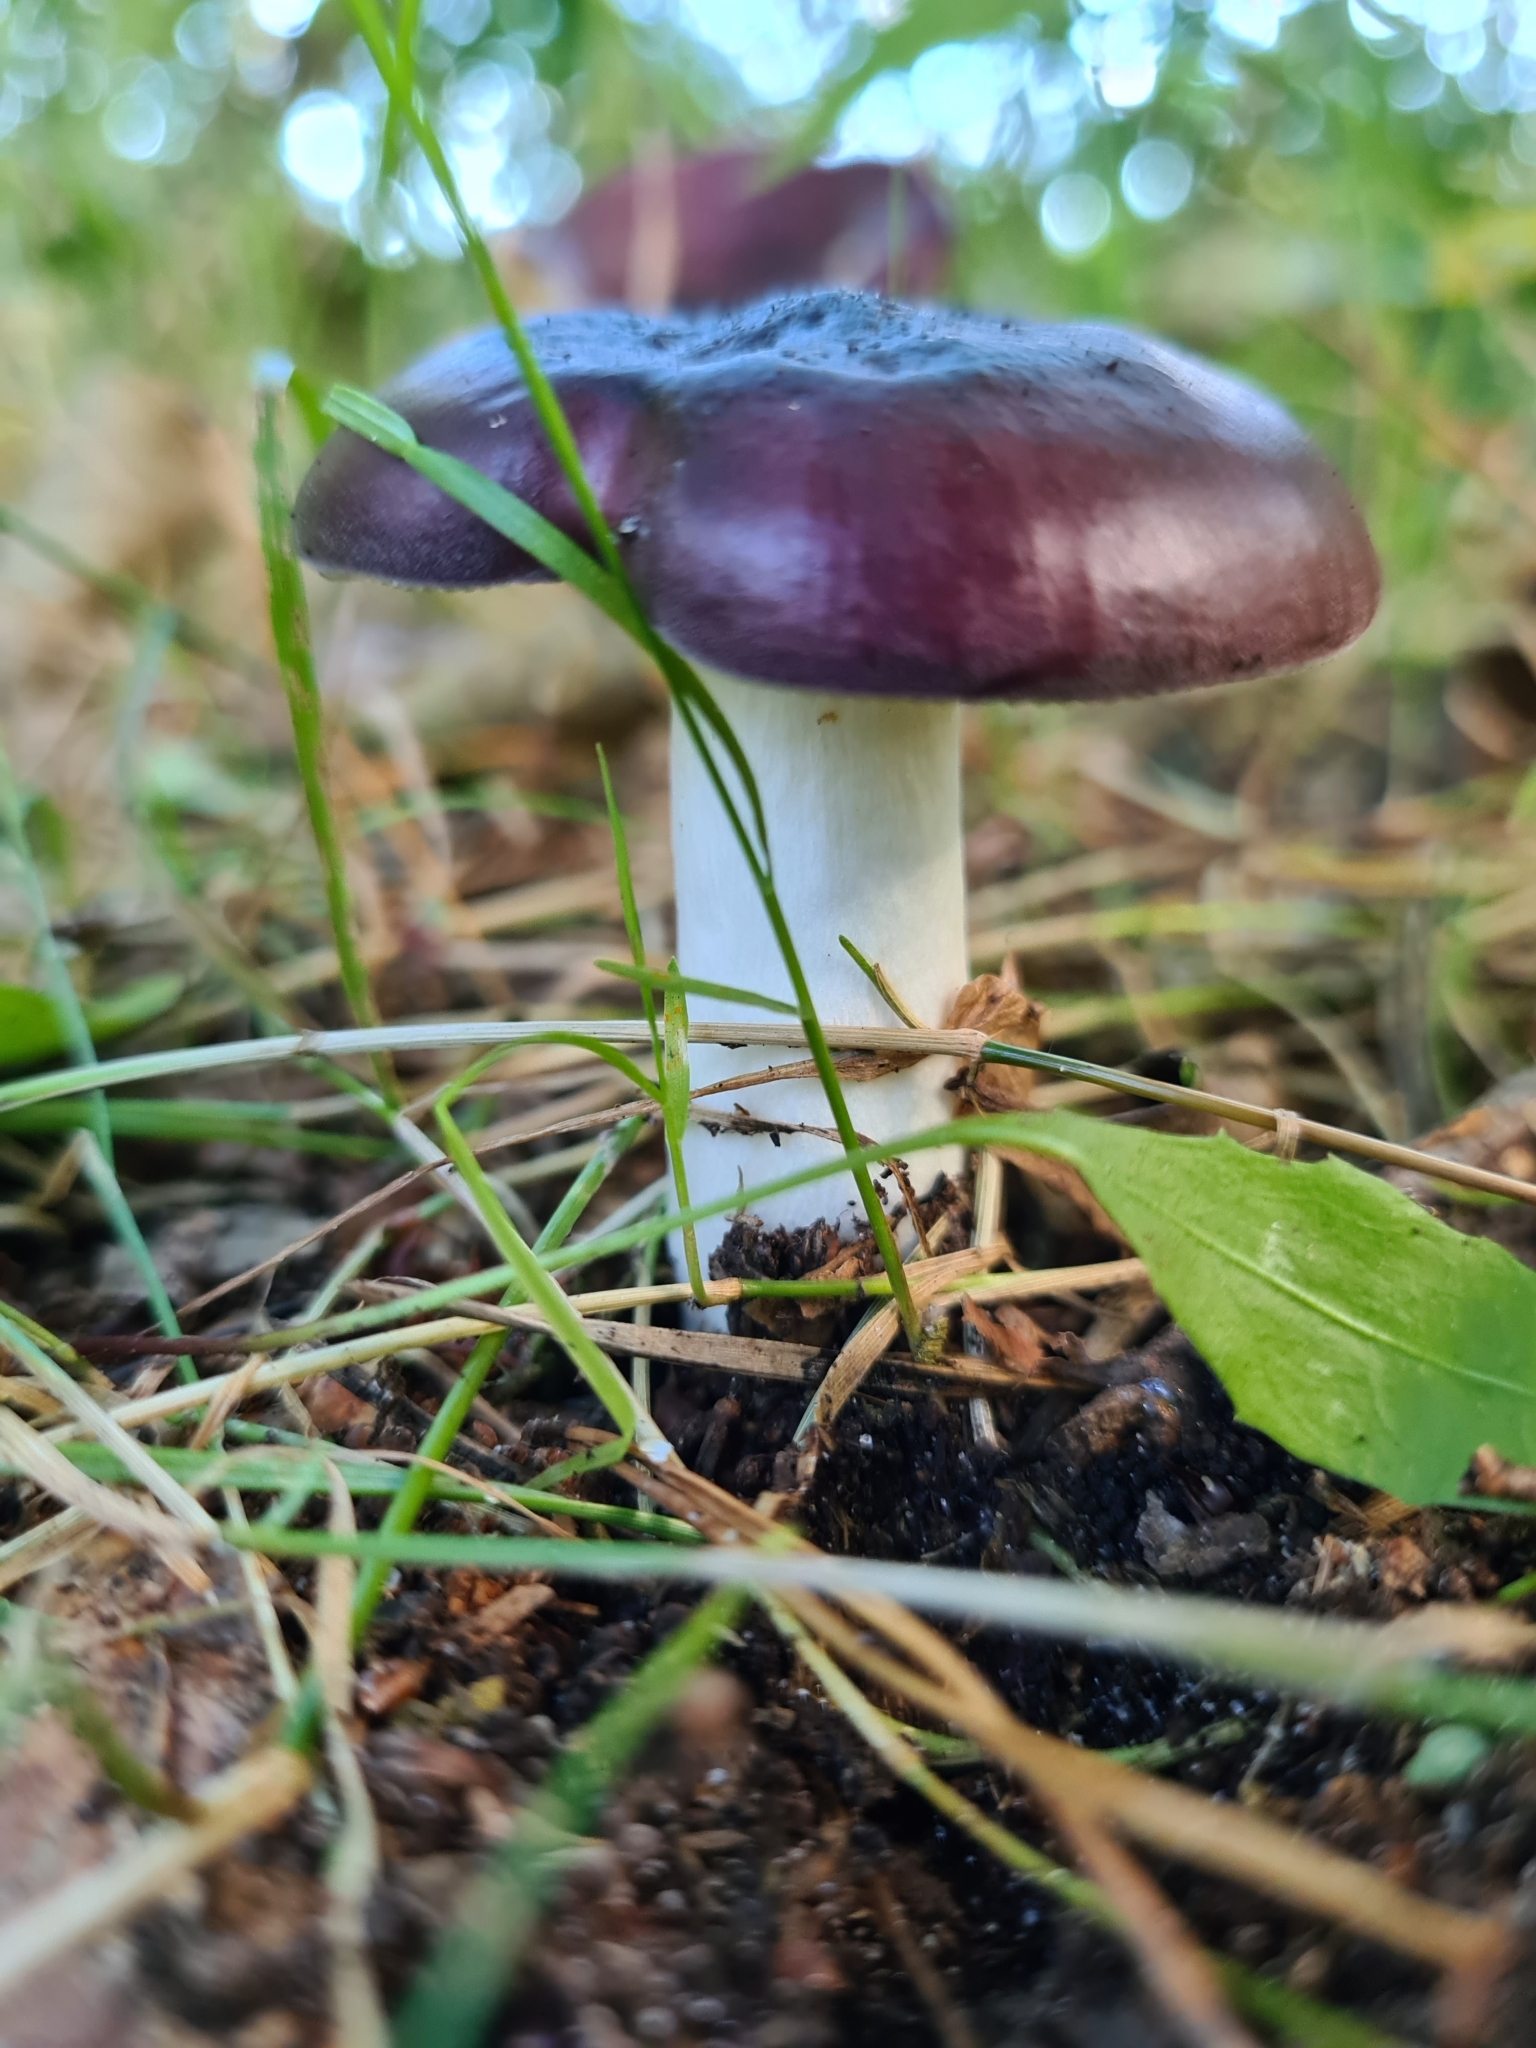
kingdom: Fungi
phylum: Basidiomycota
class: Agaricomycetes
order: Russulales
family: Russulaceae
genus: Russula
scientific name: Russula
